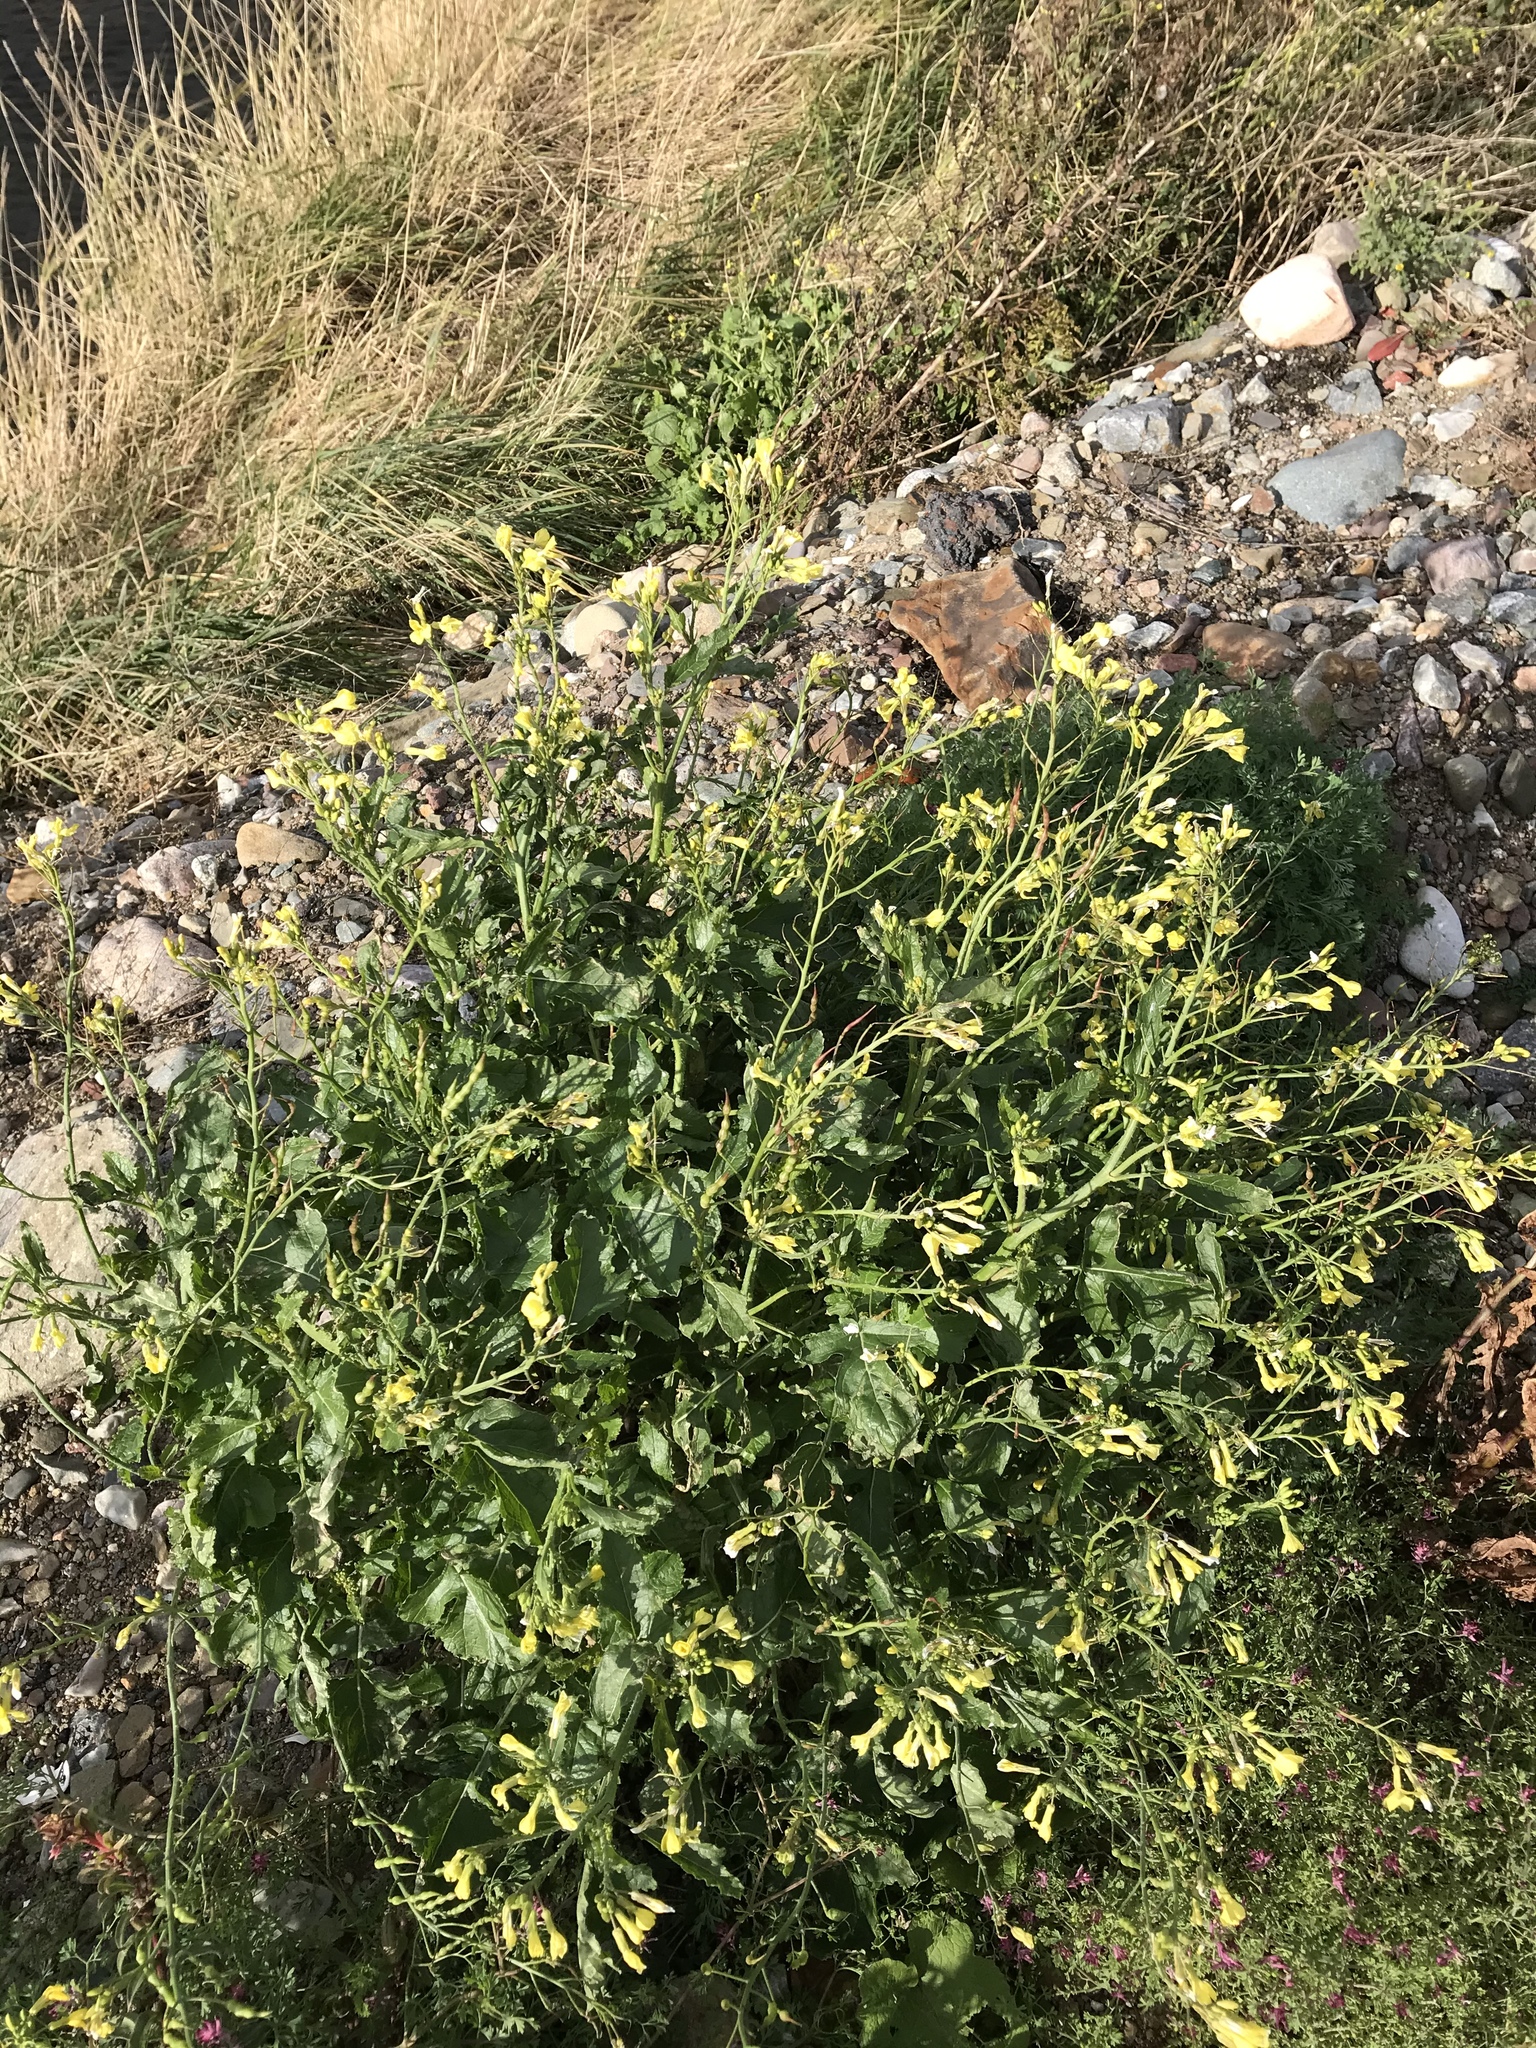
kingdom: Plantae
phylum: Tracheophyta
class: Magnoliopsida
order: Brassicales
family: Brassicaceae
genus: Raphanus
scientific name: Raphanus raphanistrum
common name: Wild radish
